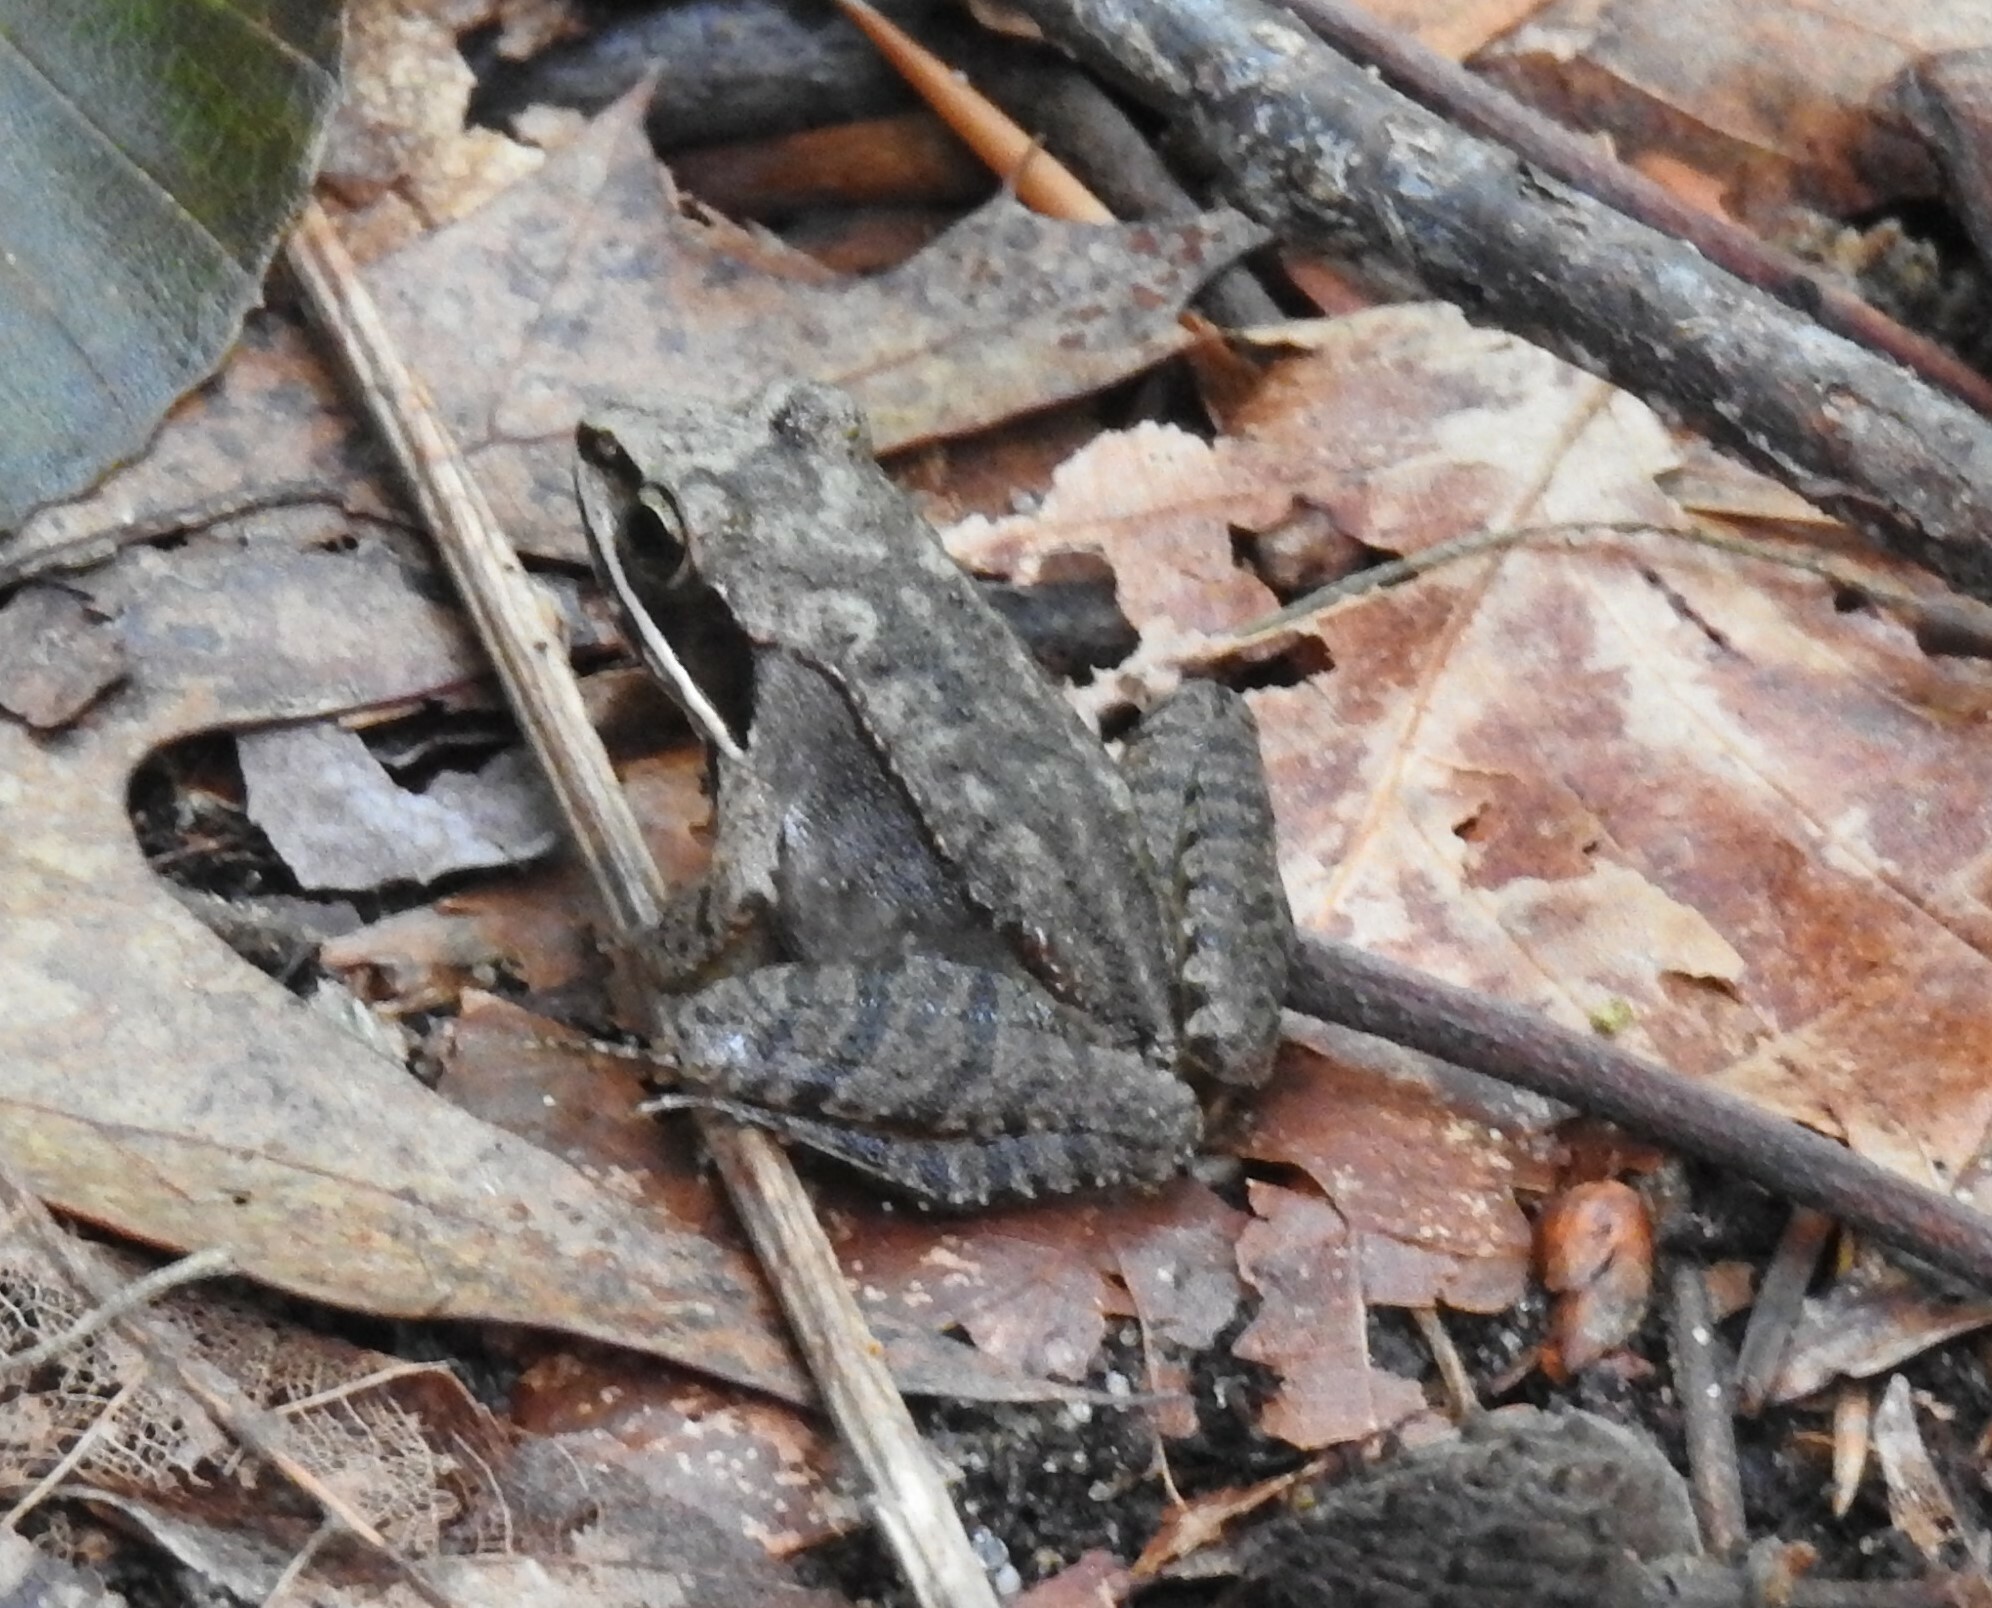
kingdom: Animalia
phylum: Chordata
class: Amphibia
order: Anura
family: Ranidae
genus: Lithobates
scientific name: Lithobates sylvaticus
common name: Wood frog
